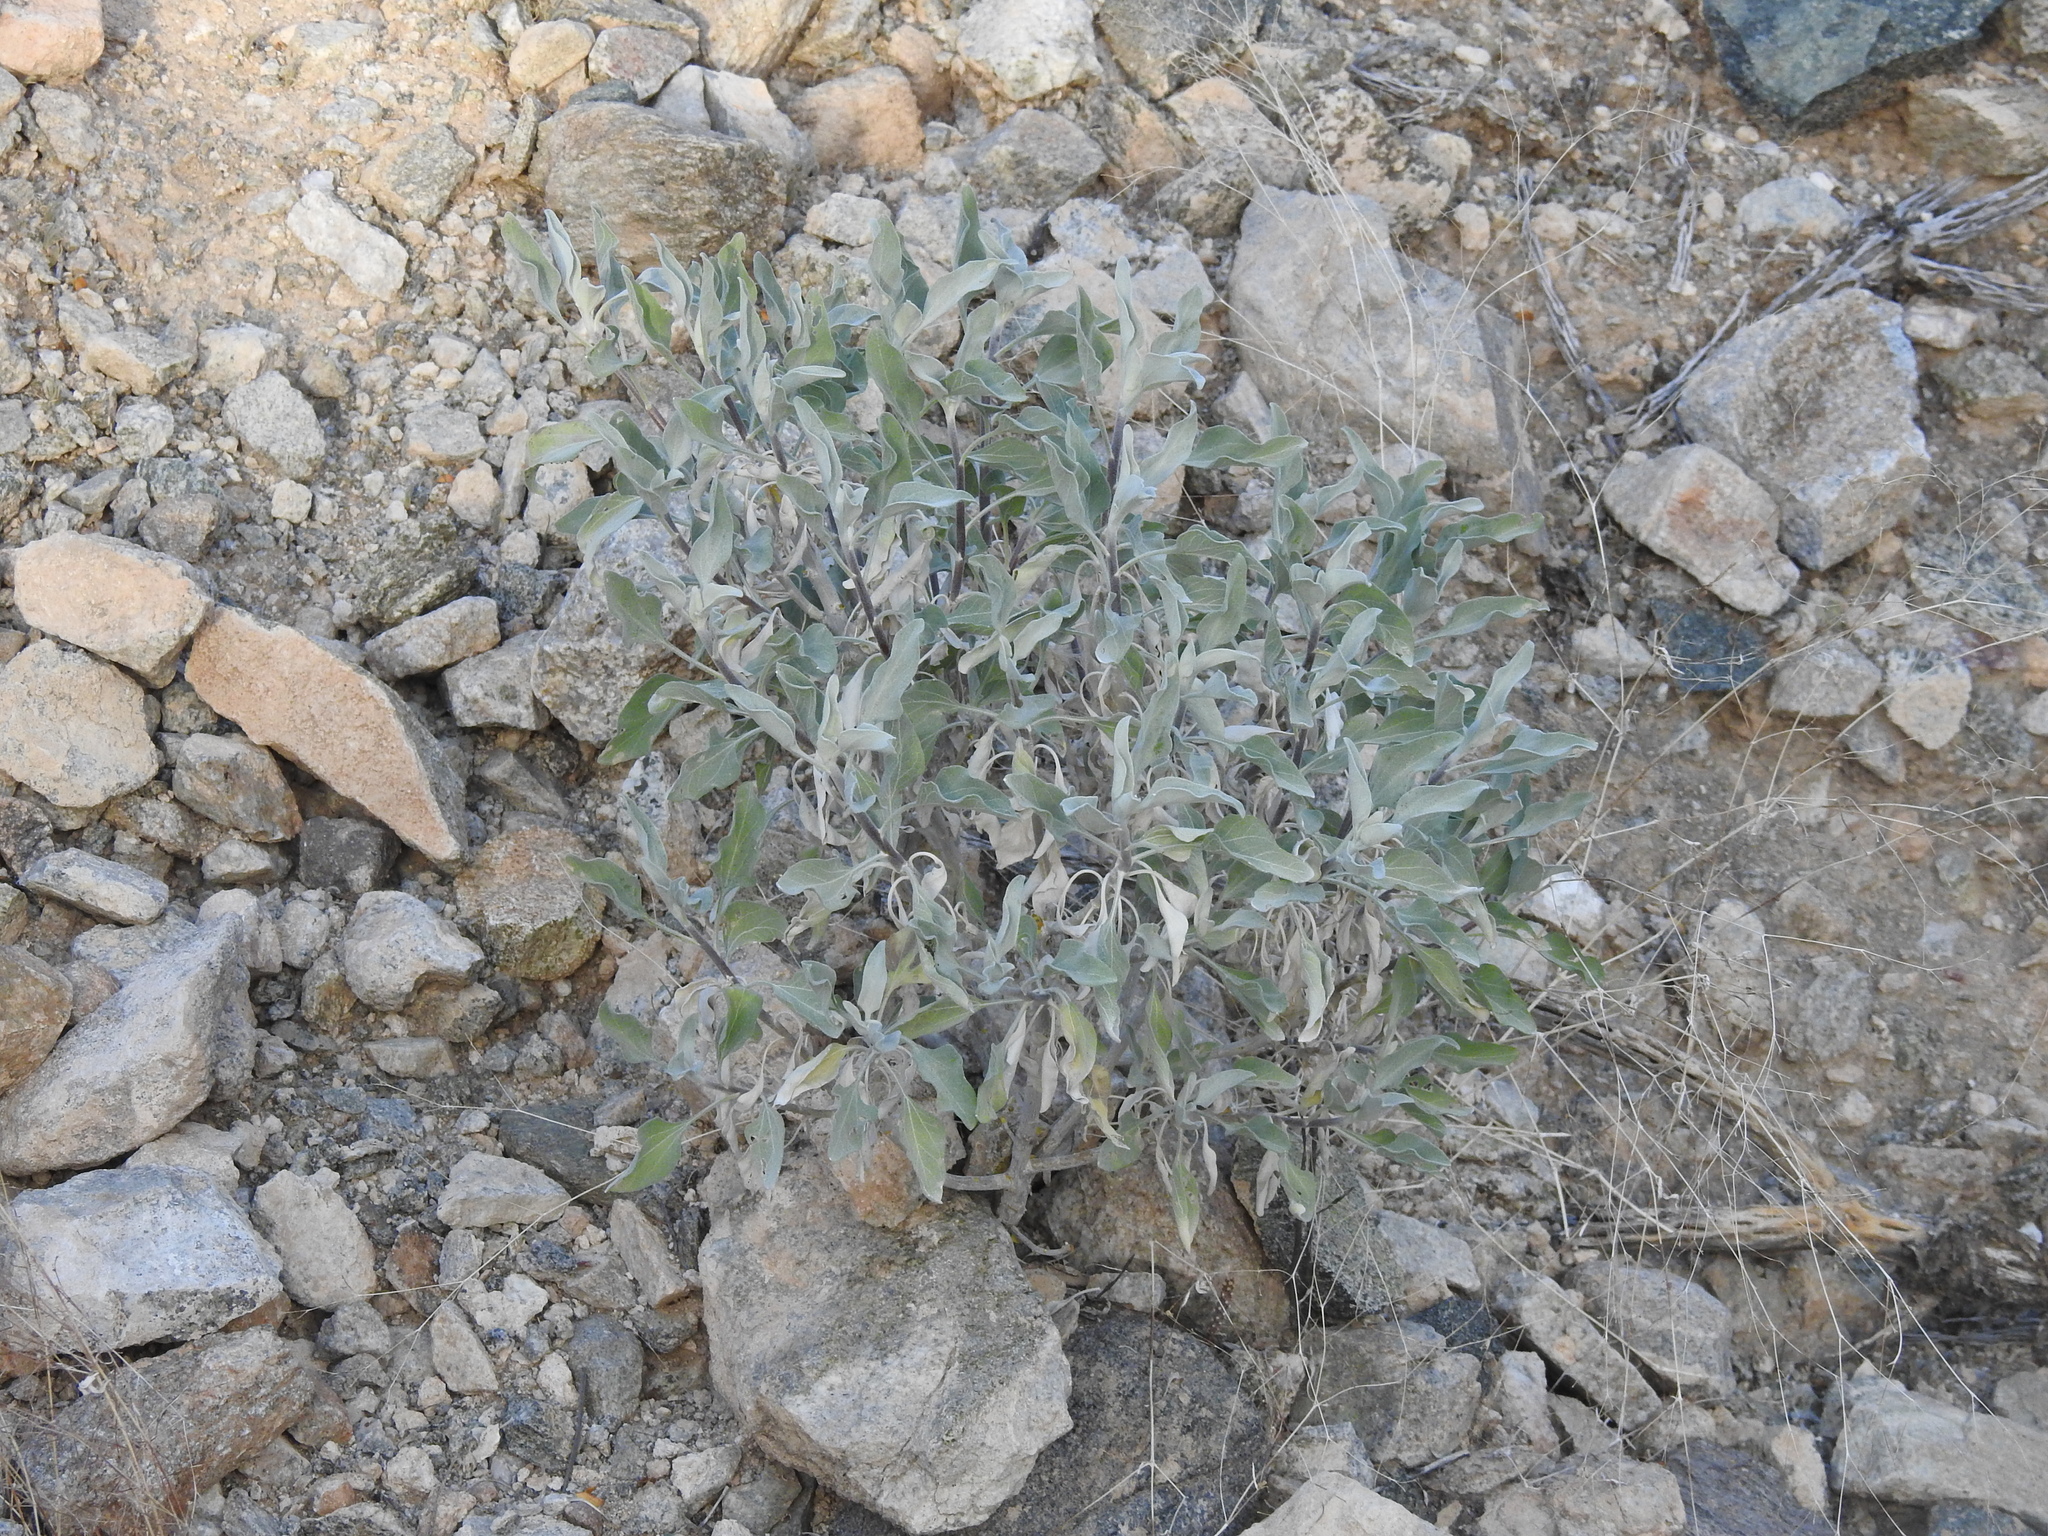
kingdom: Plantae
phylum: Tracheophyta
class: Magnoliopsida
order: Asterales
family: Asteraceae
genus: Encelia
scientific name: Encelia farinosa
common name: Brittlebush
